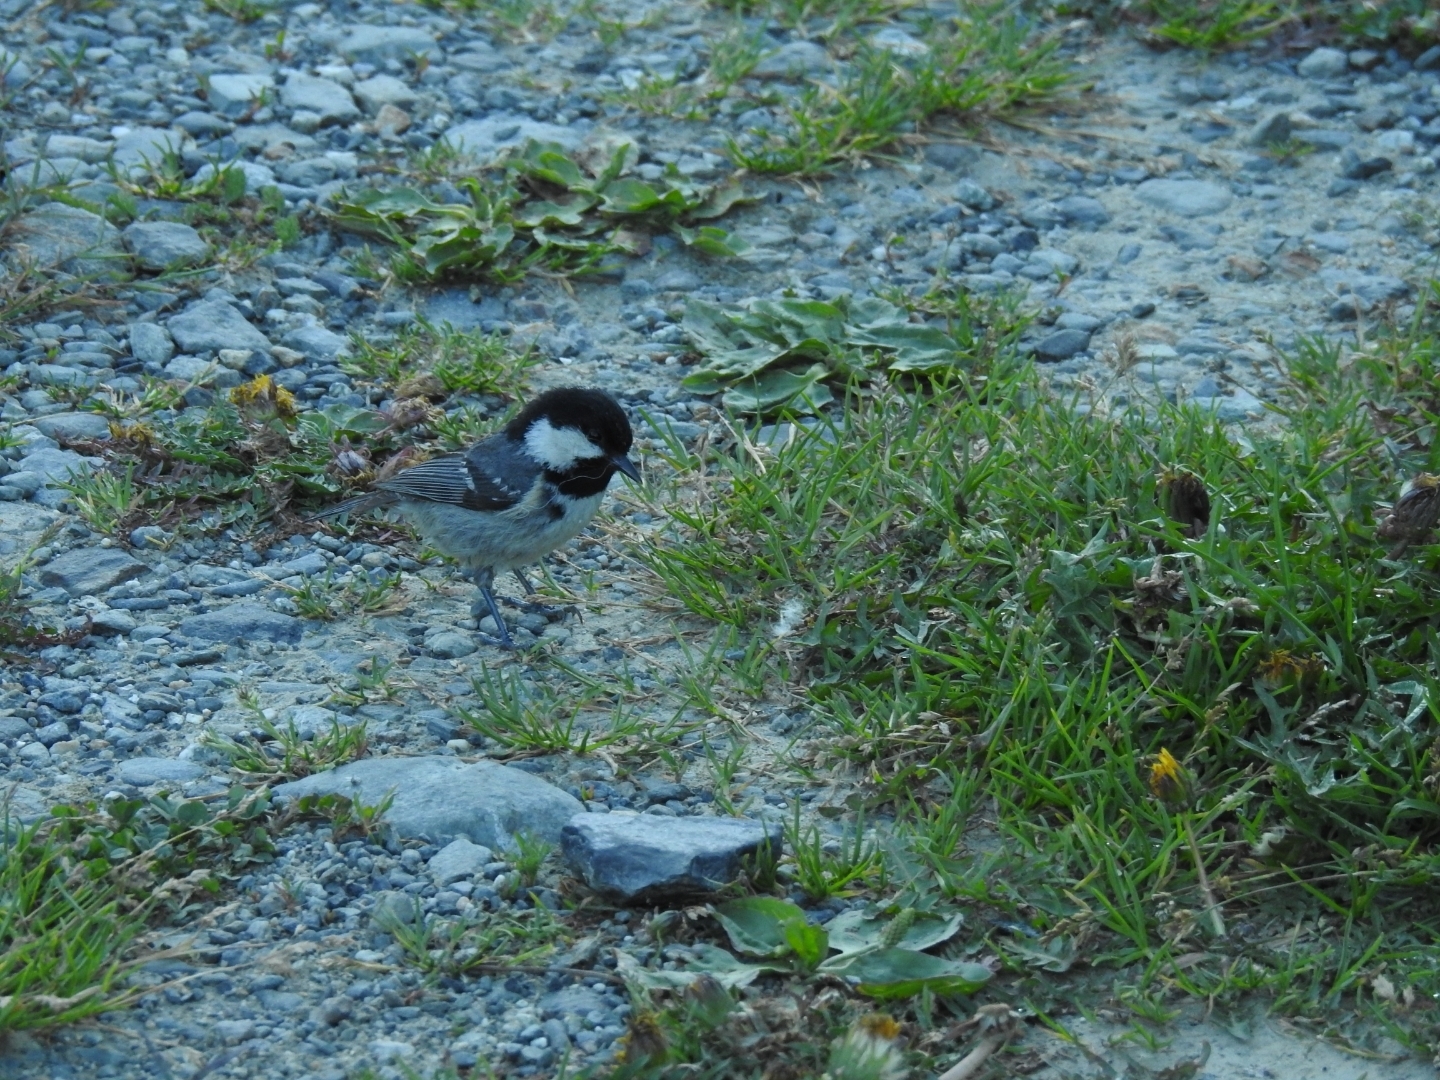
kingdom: Animalia
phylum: Chordata
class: Aves
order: Passeriformes
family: Paridae
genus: Periparus
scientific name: Periparus ater
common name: Coal tit
